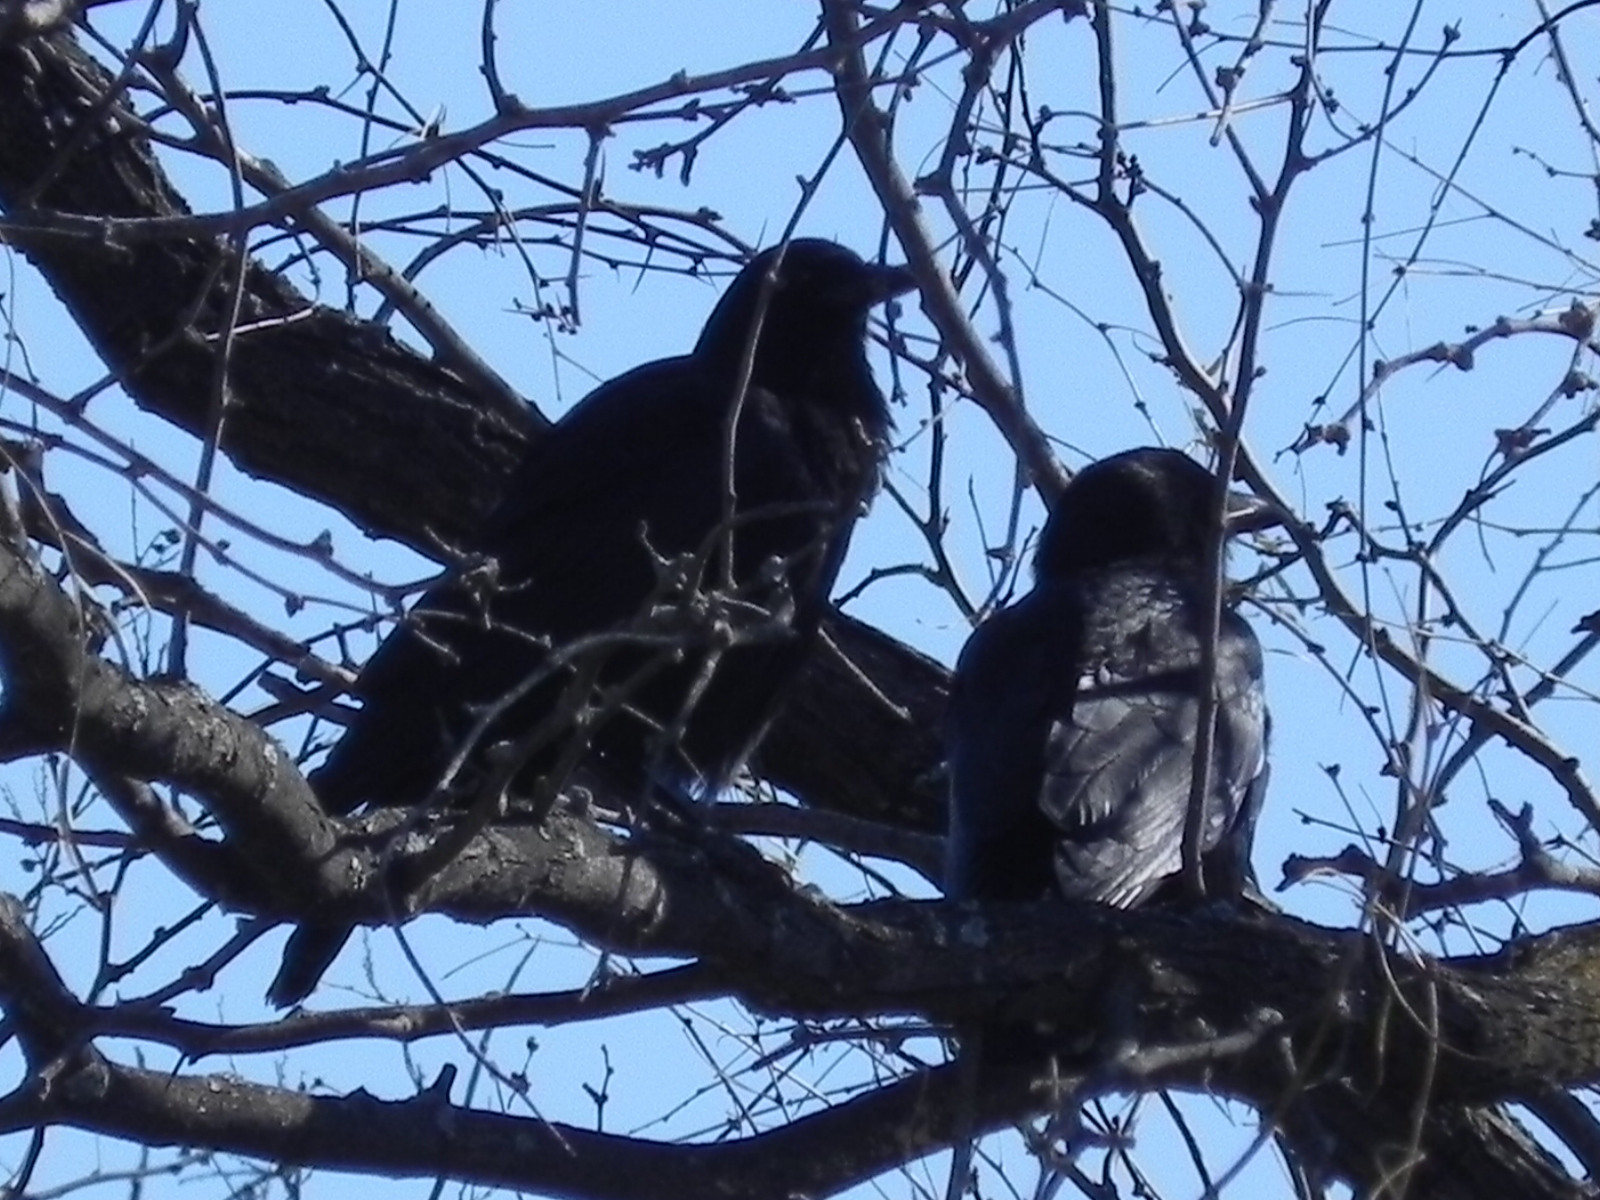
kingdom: Animalia
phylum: Chordata
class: Aves
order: Passeriformes
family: Corvidae
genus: Corvus
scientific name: Corvus brachyrhynchos
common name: American crow
